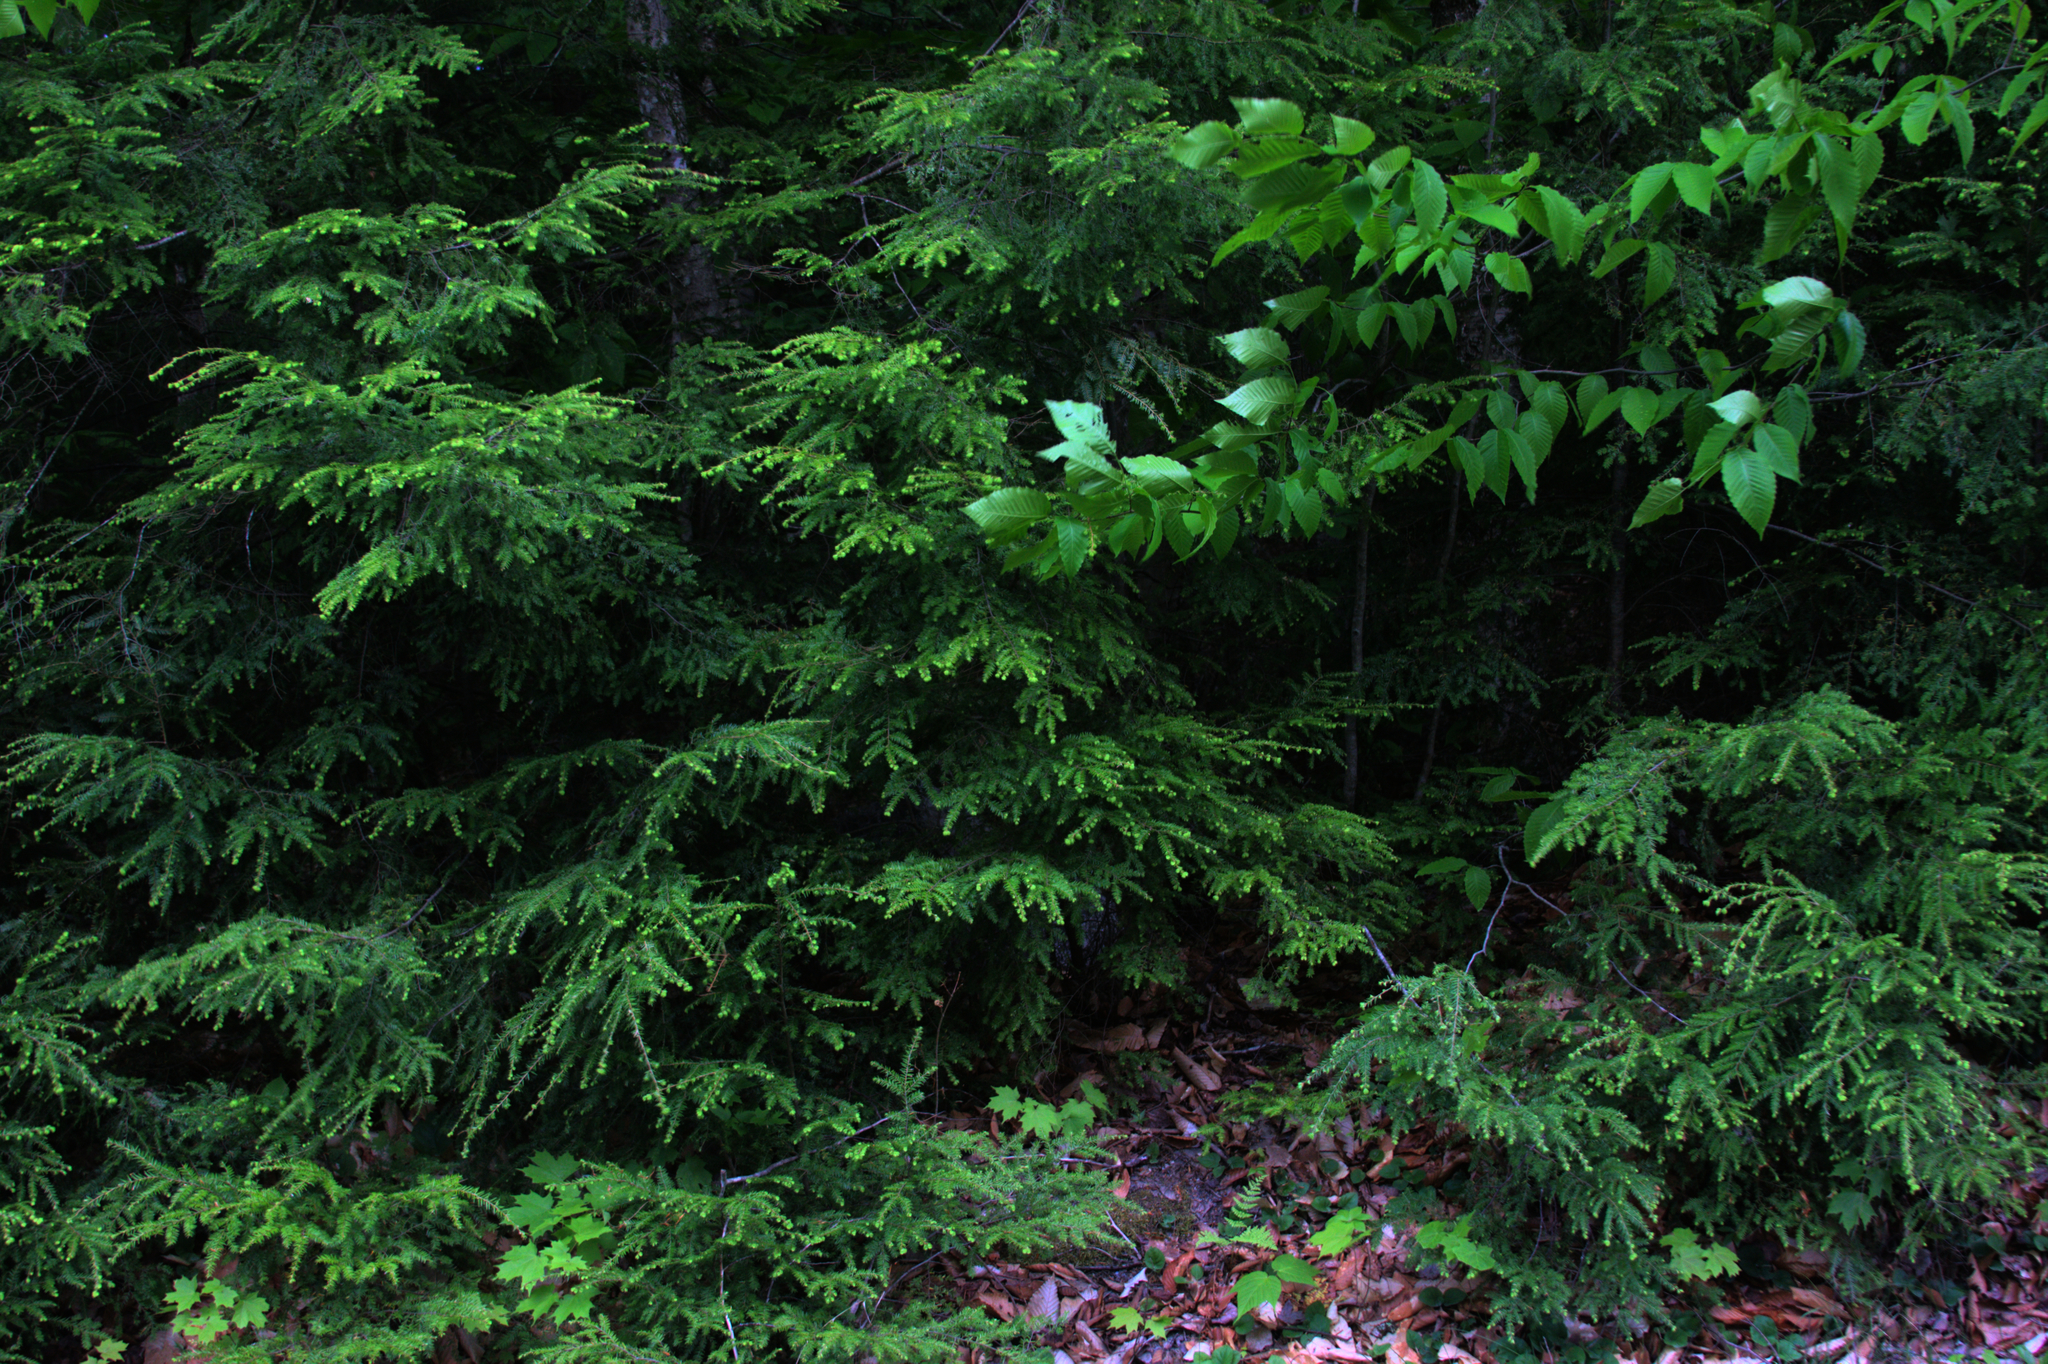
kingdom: Plantae
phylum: Tracheophyta
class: Pinopsida
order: Pinales
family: Pinaceae
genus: Tsuga
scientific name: Tsuga canadensis
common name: Eastern hemlock
